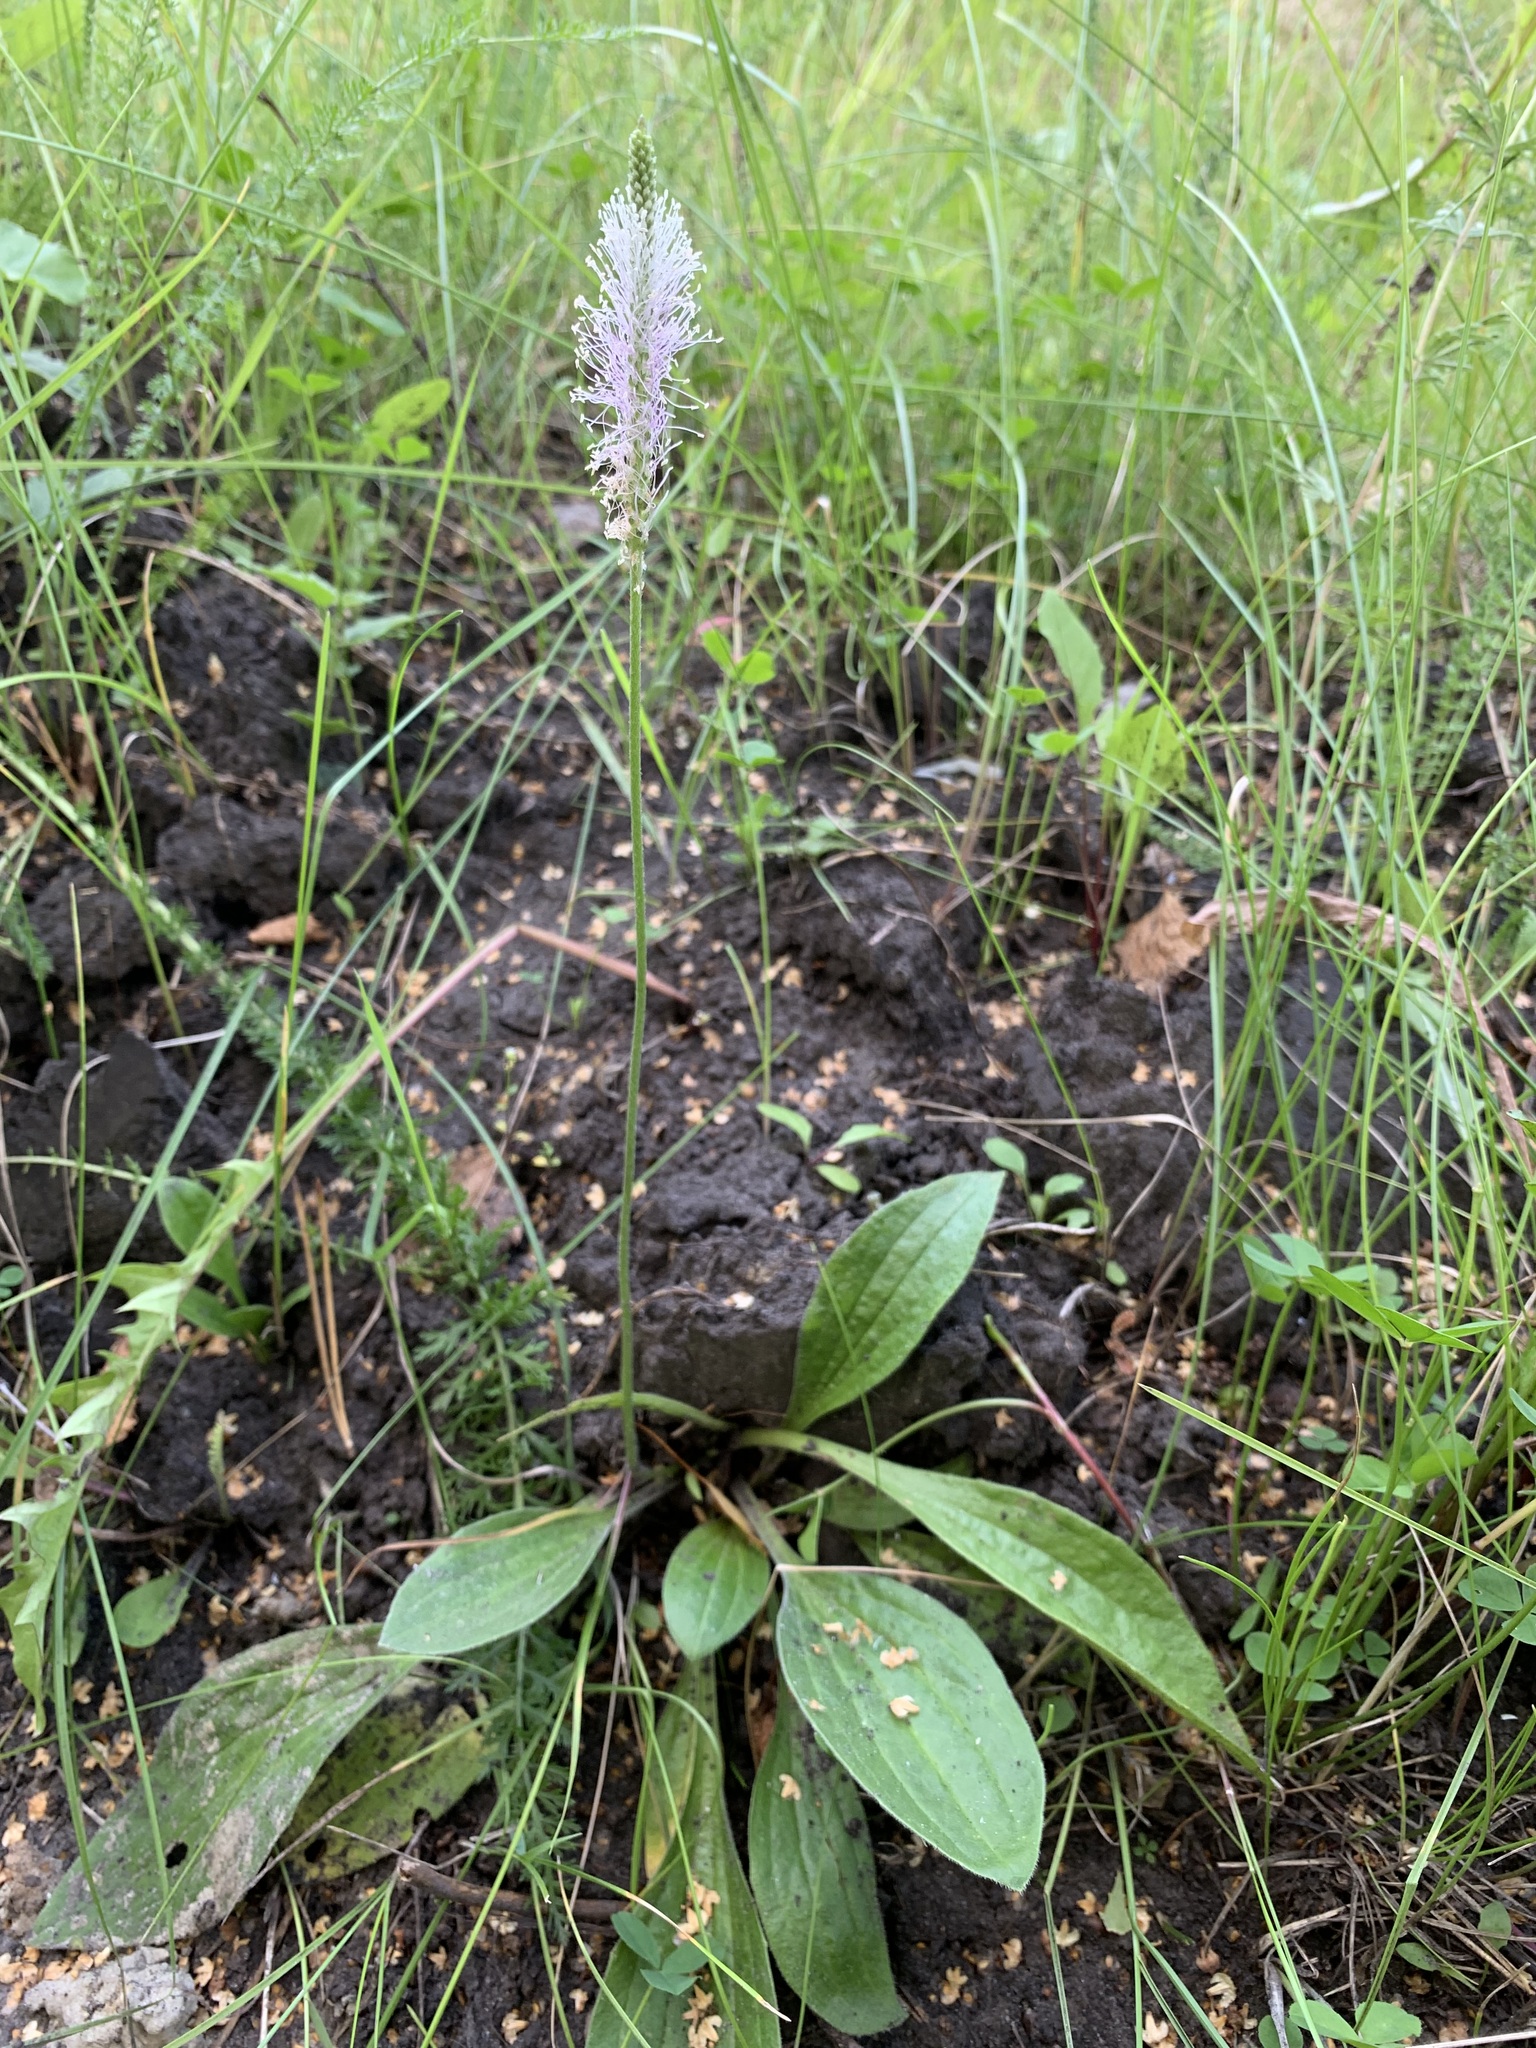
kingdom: Plantae
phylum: Tracheophyta
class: Magnoliopsida
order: Lamiales
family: Plantaginaceae
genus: Plantago
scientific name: Plantago urvillei
